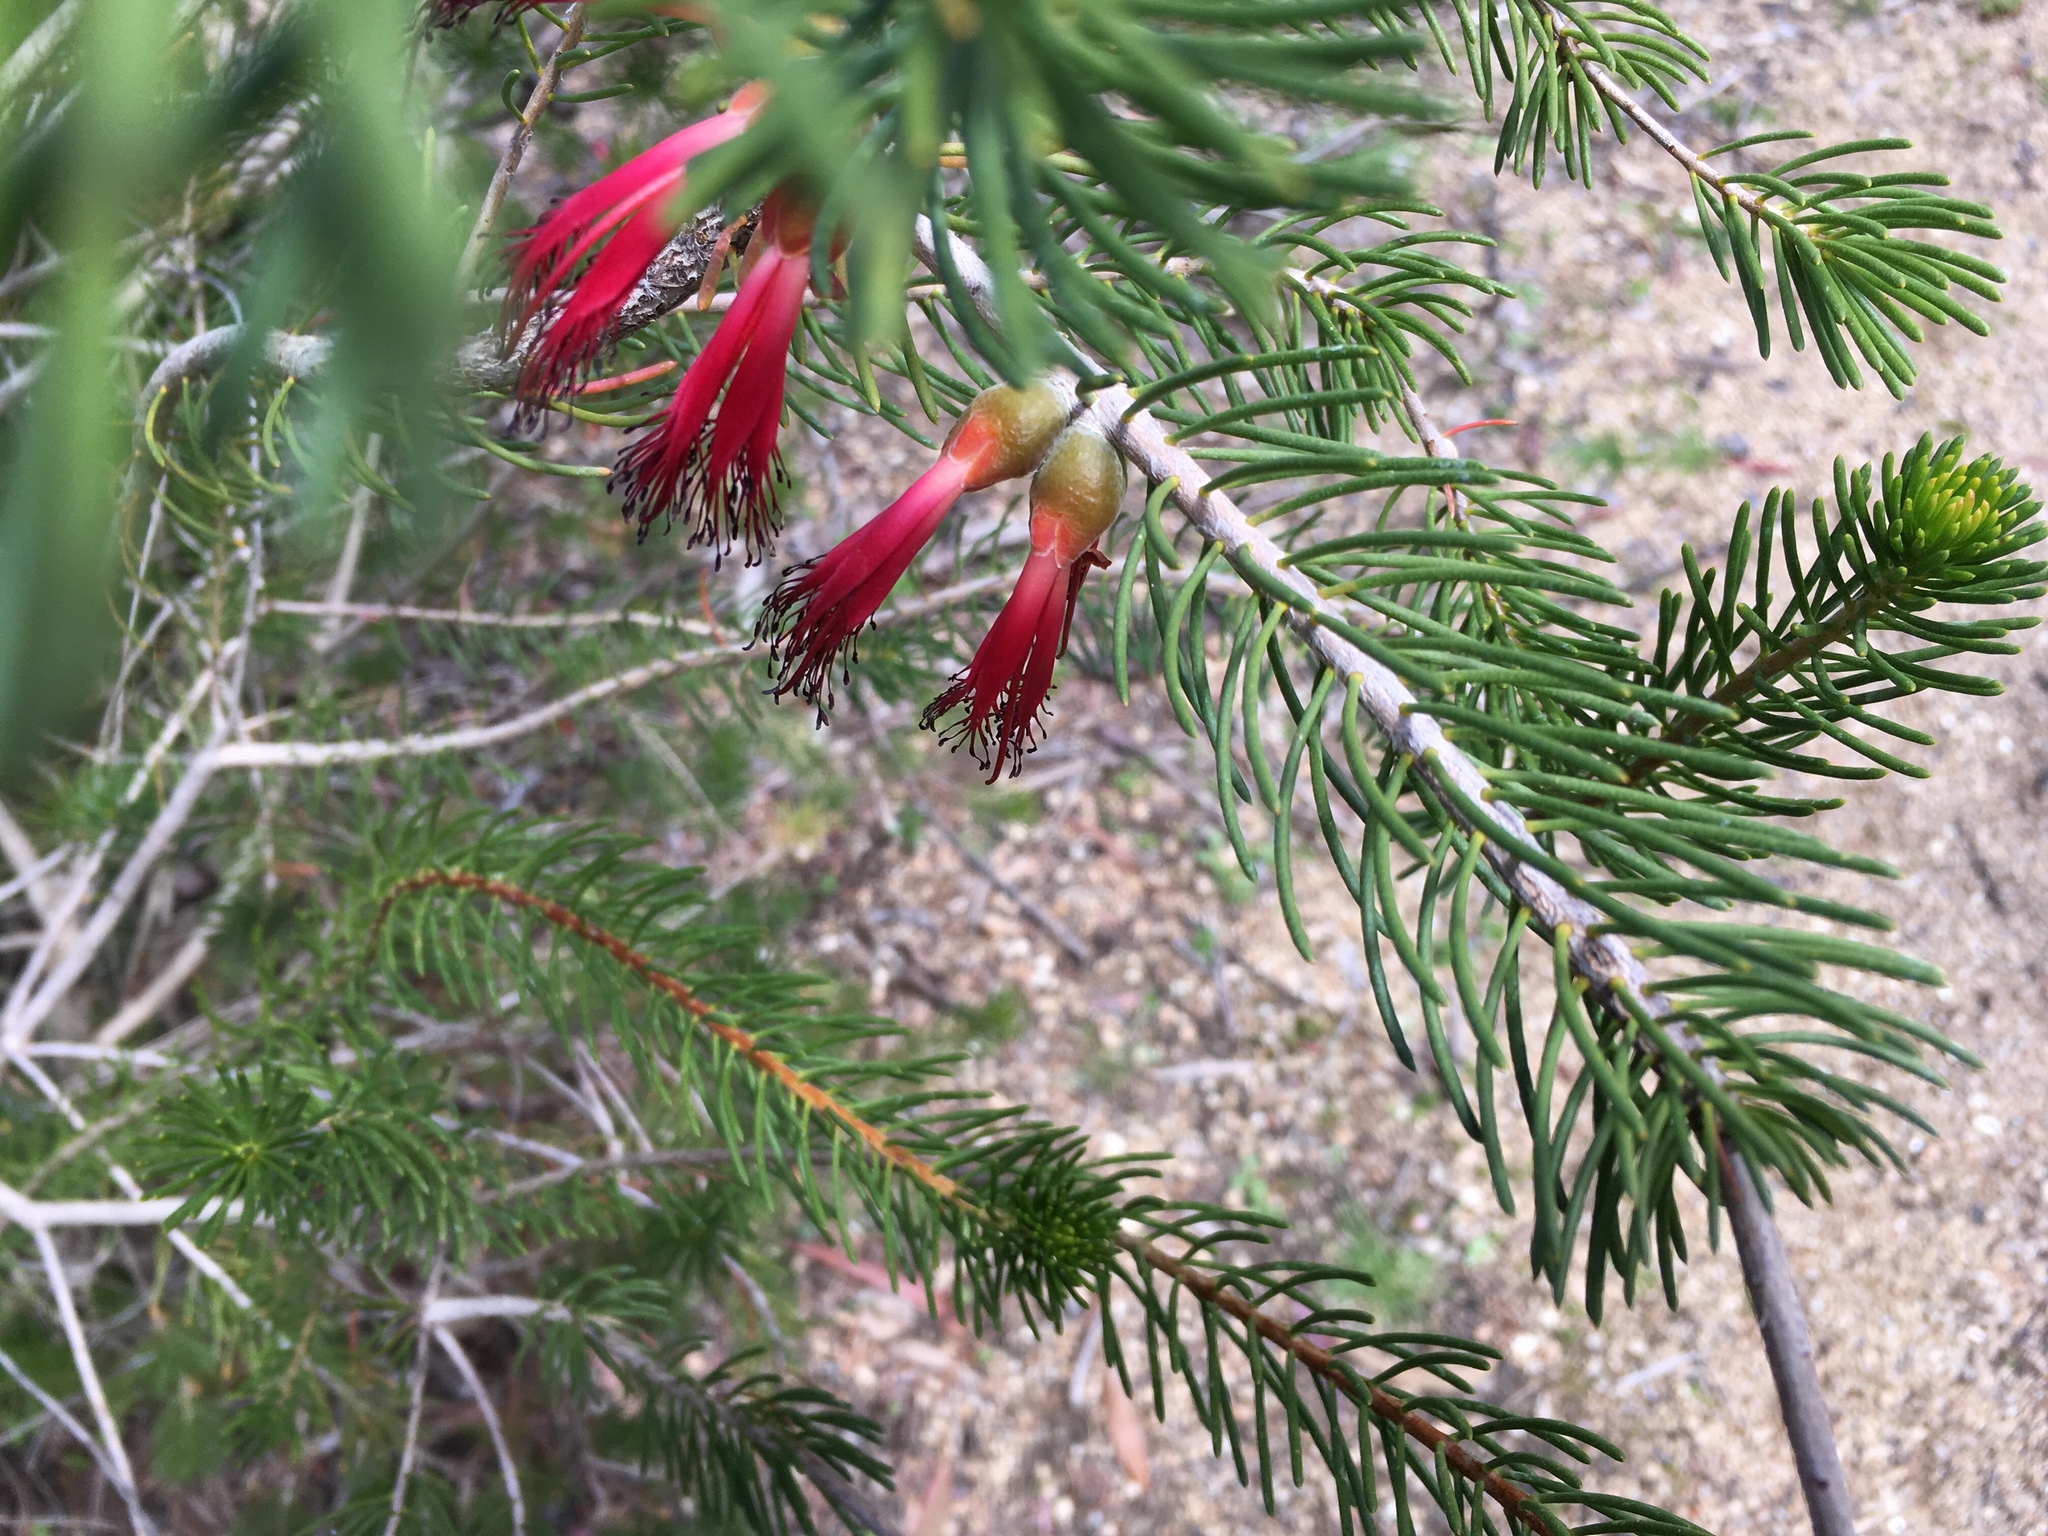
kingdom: Plantae
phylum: Tracheophyta
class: Magnoliopsida
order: Myrtales
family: Myrtaceae
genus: Melaleuca
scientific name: Melaleuca
